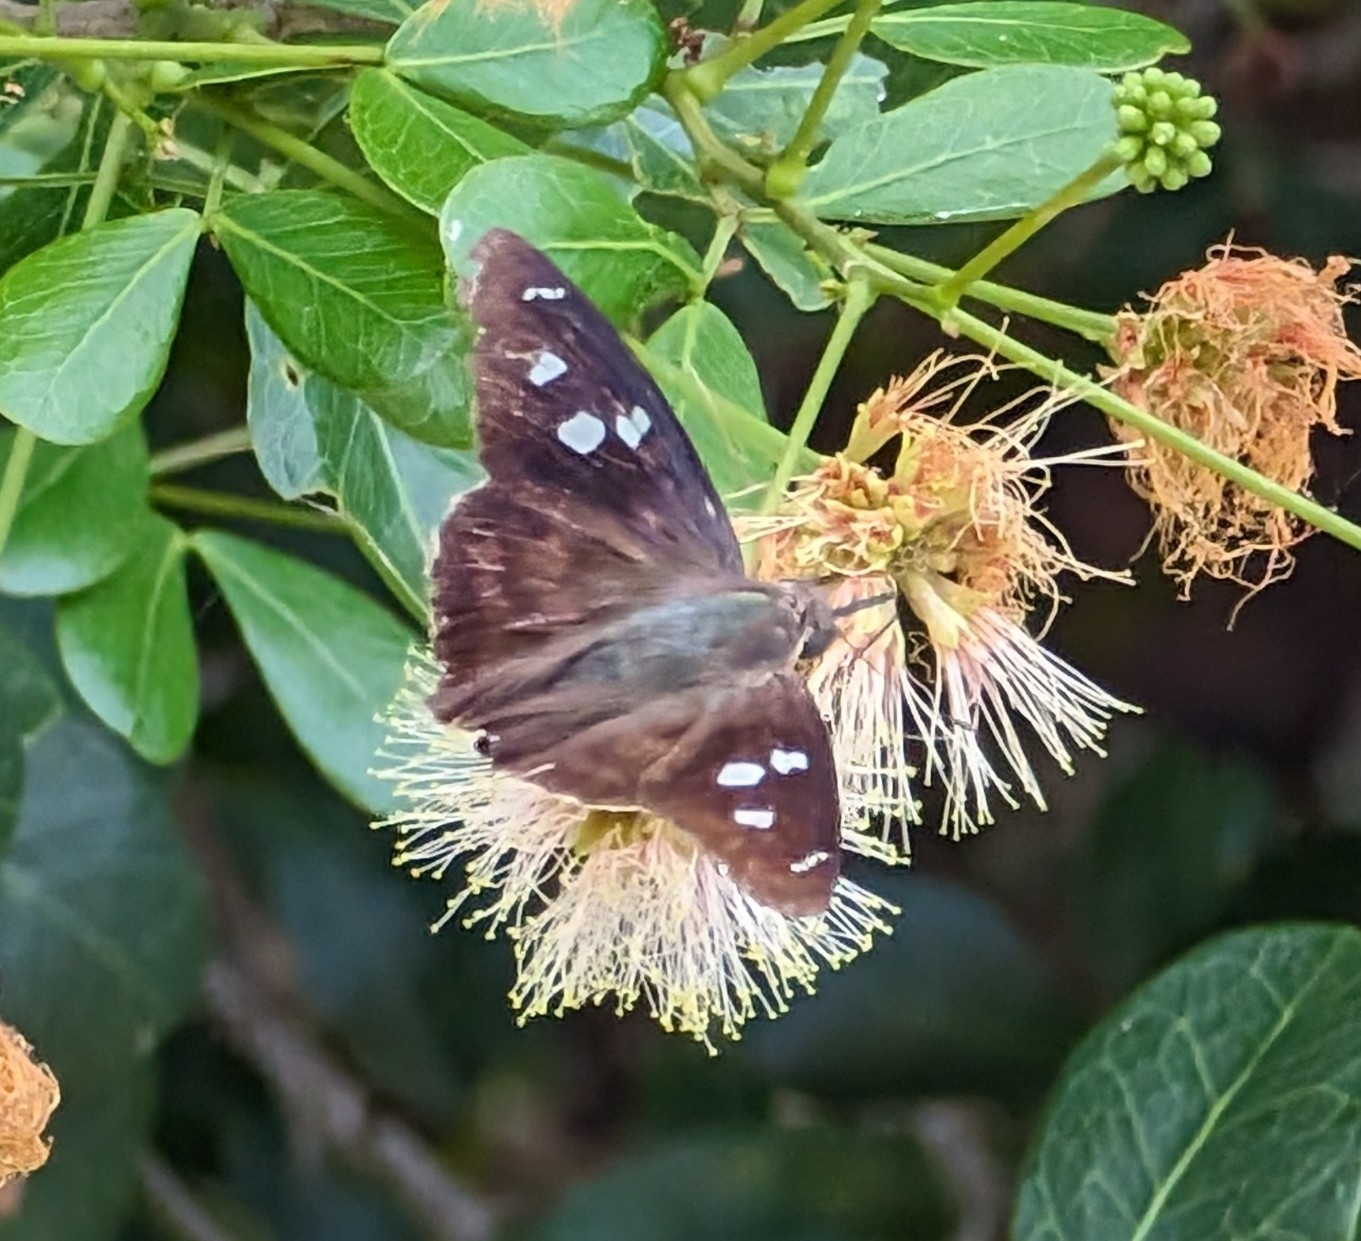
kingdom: Animalia
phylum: Arthropoda
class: Insecta
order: Lepidoptera
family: Hesperiidae
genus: Polygonus
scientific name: Polygonus leo
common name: Hammoch skipper
